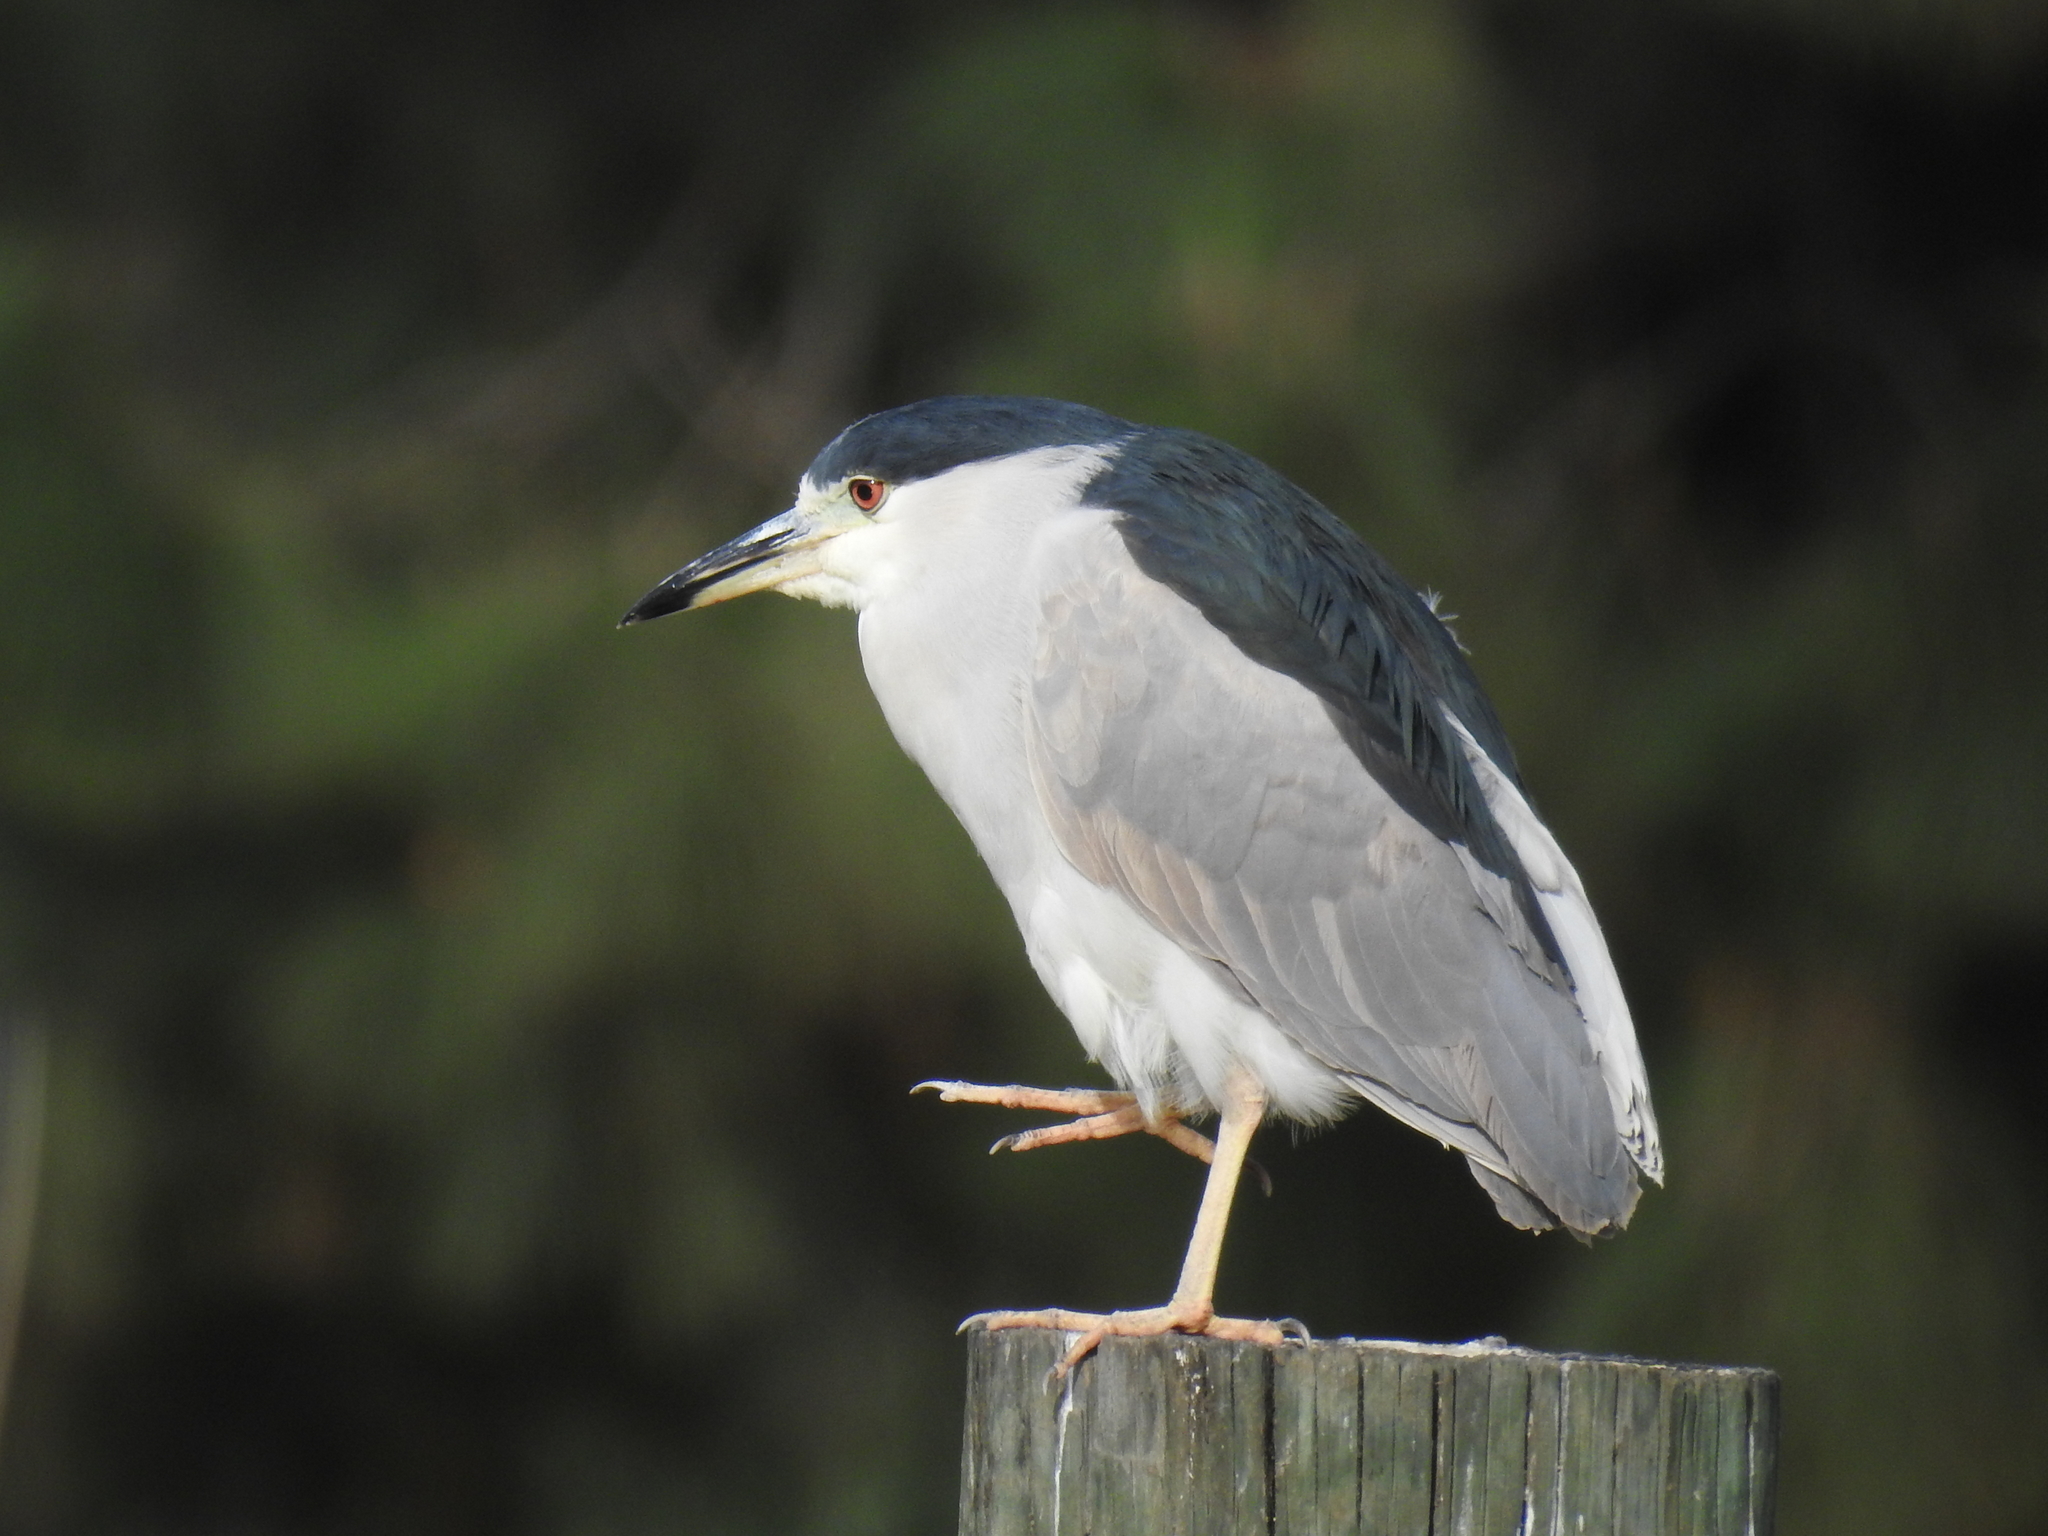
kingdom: Animalia
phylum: Chordata
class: Aves
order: Pelecaniformes
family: Ardeidae
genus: Nycticorax
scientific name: Nycticorax nycticorax
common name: Black-crowned night heron
